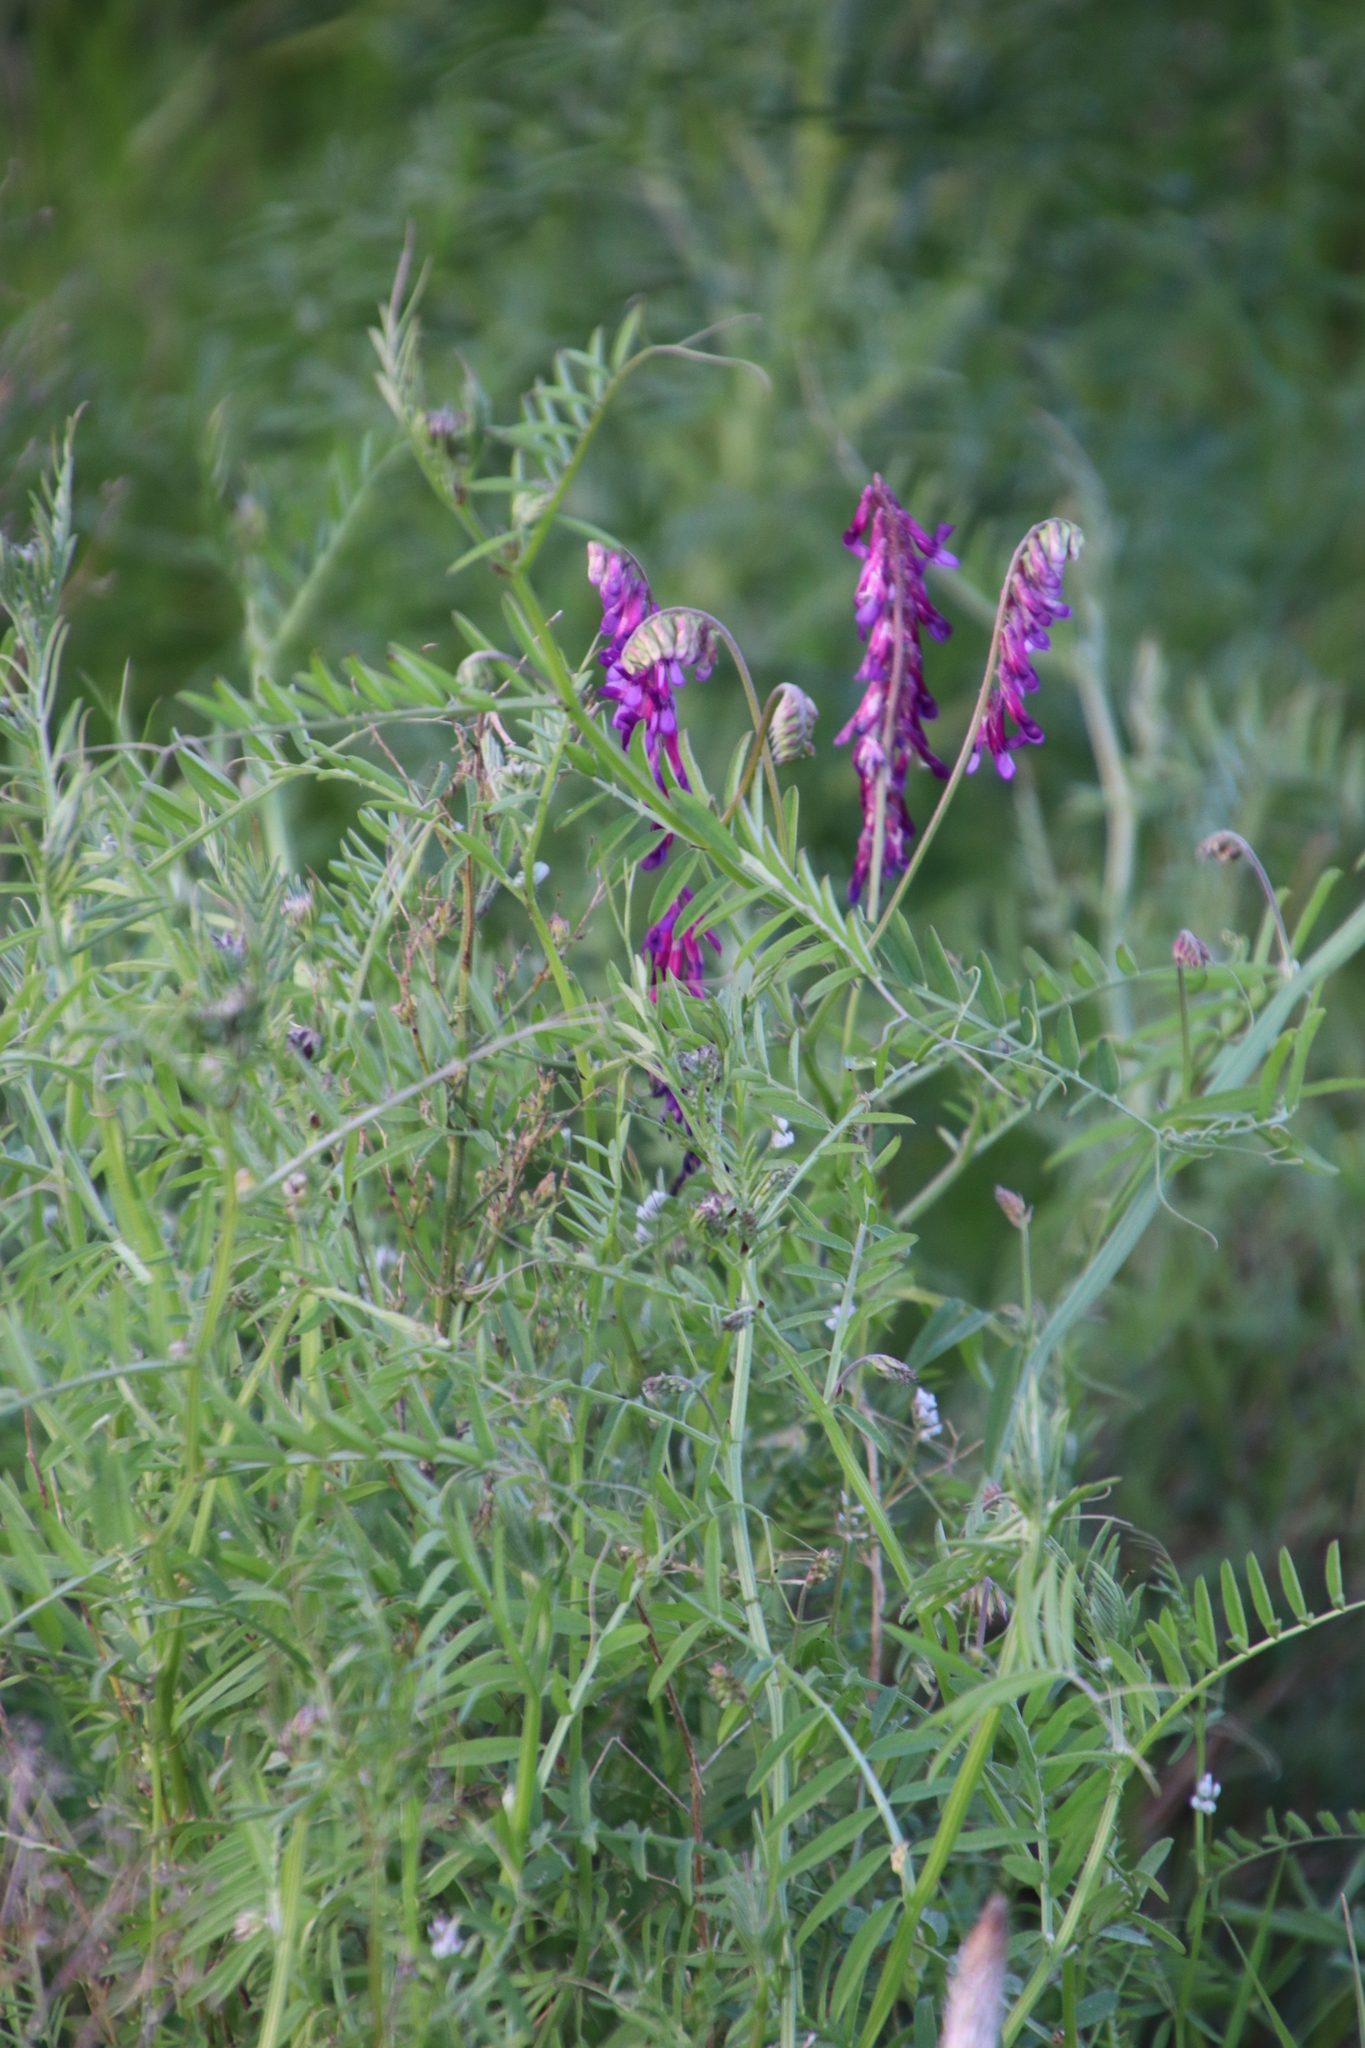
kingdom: Plantae
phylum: Tracheophyta
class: Magnoliopsida
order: Fabales
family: Fabaceae
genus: Vicia
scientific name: Vicia eriocarpa
